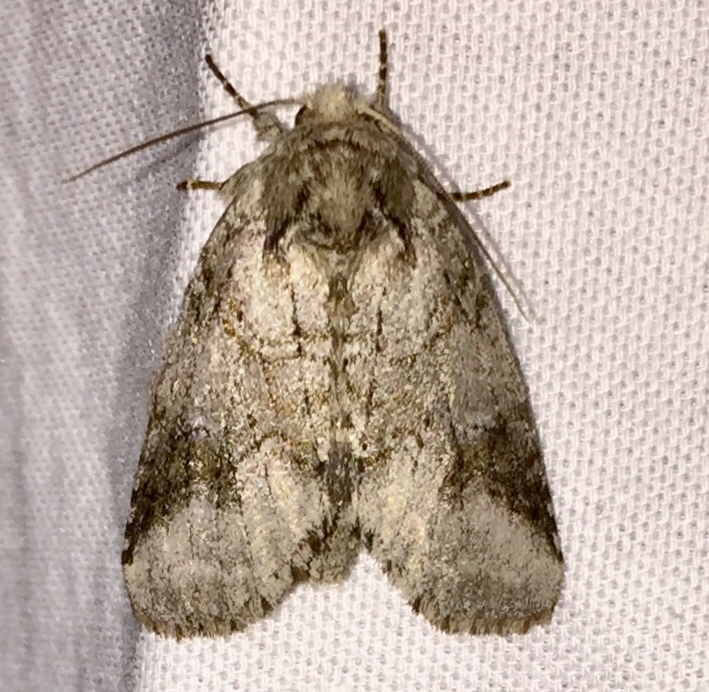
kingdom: Animalia
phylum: Arthropoda
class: Insecta
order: Lepidoptera
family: Notodontidae
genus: Lochmaeus
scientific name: Lochmaeus bilineata
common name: Double-lined prominent
